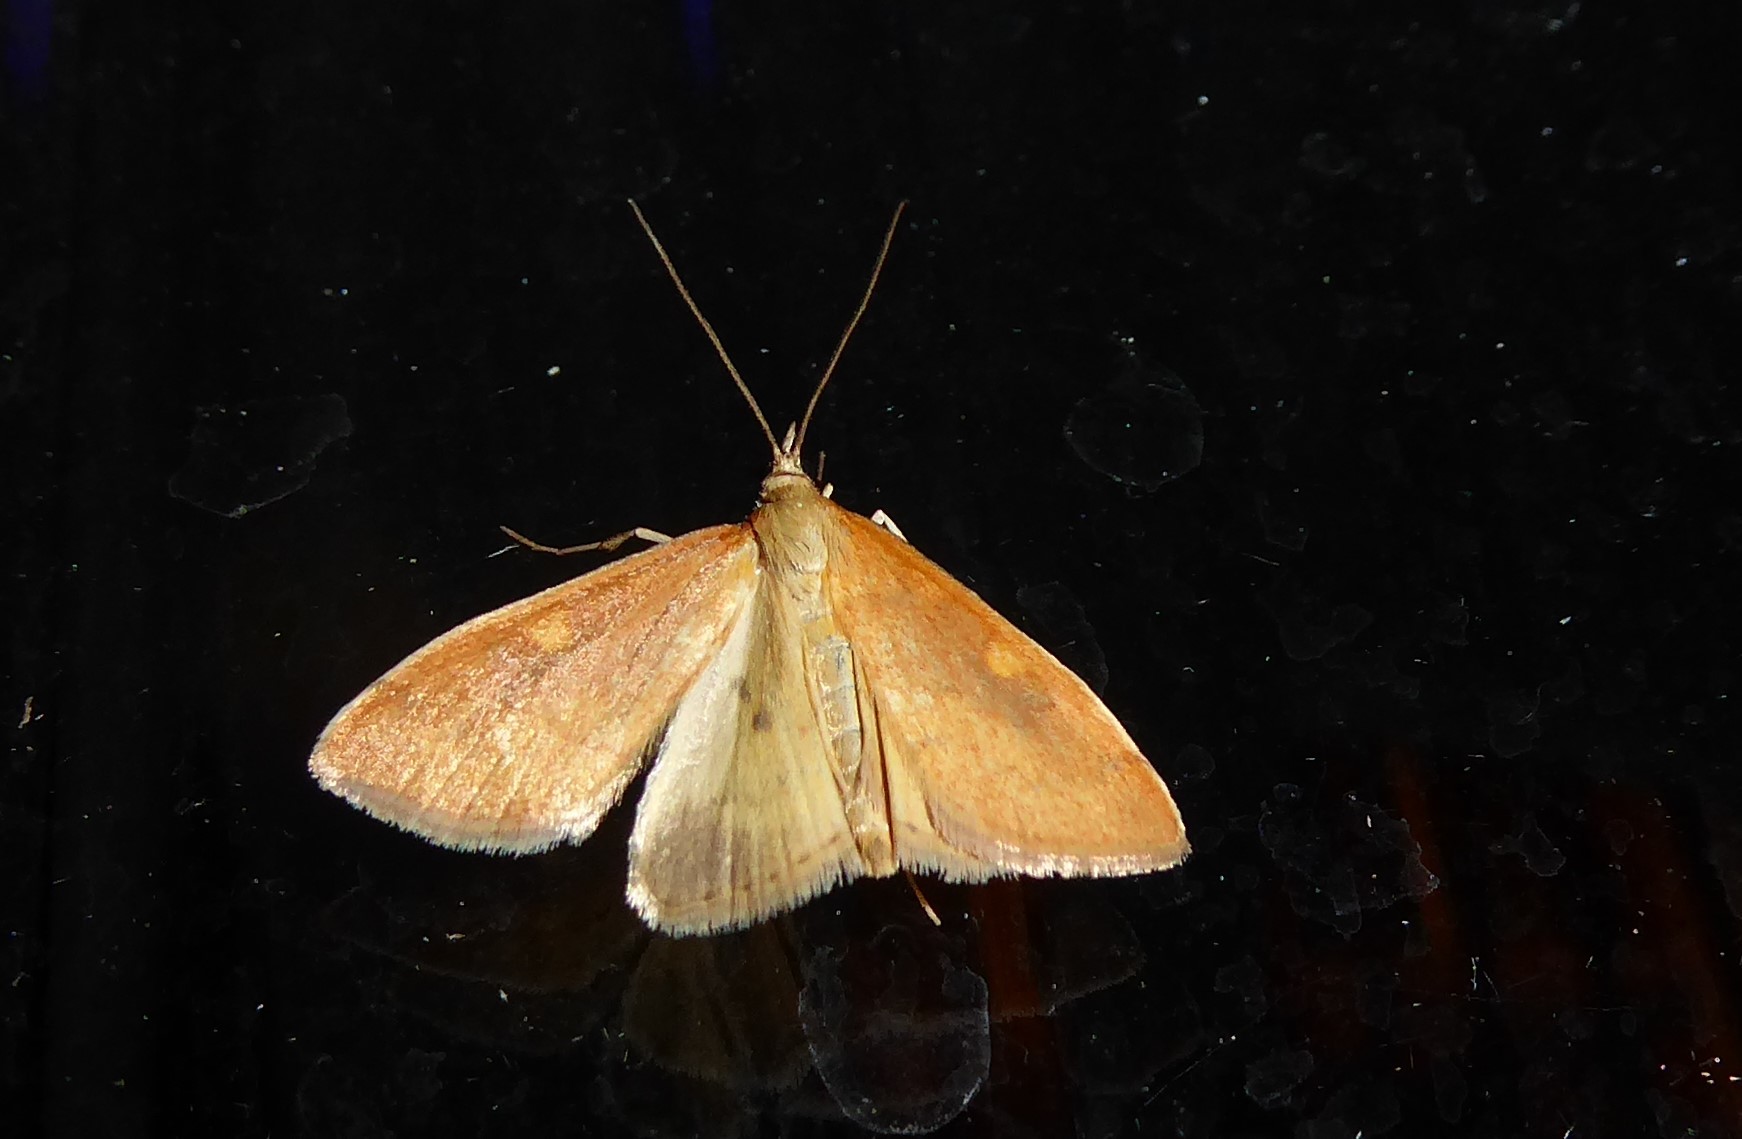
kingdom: Animalia
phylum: Arthropoda
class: Insecta
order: Lepidoptera
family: Crambidae
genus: Udea
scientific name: Udea Mnesictena flavidalis
